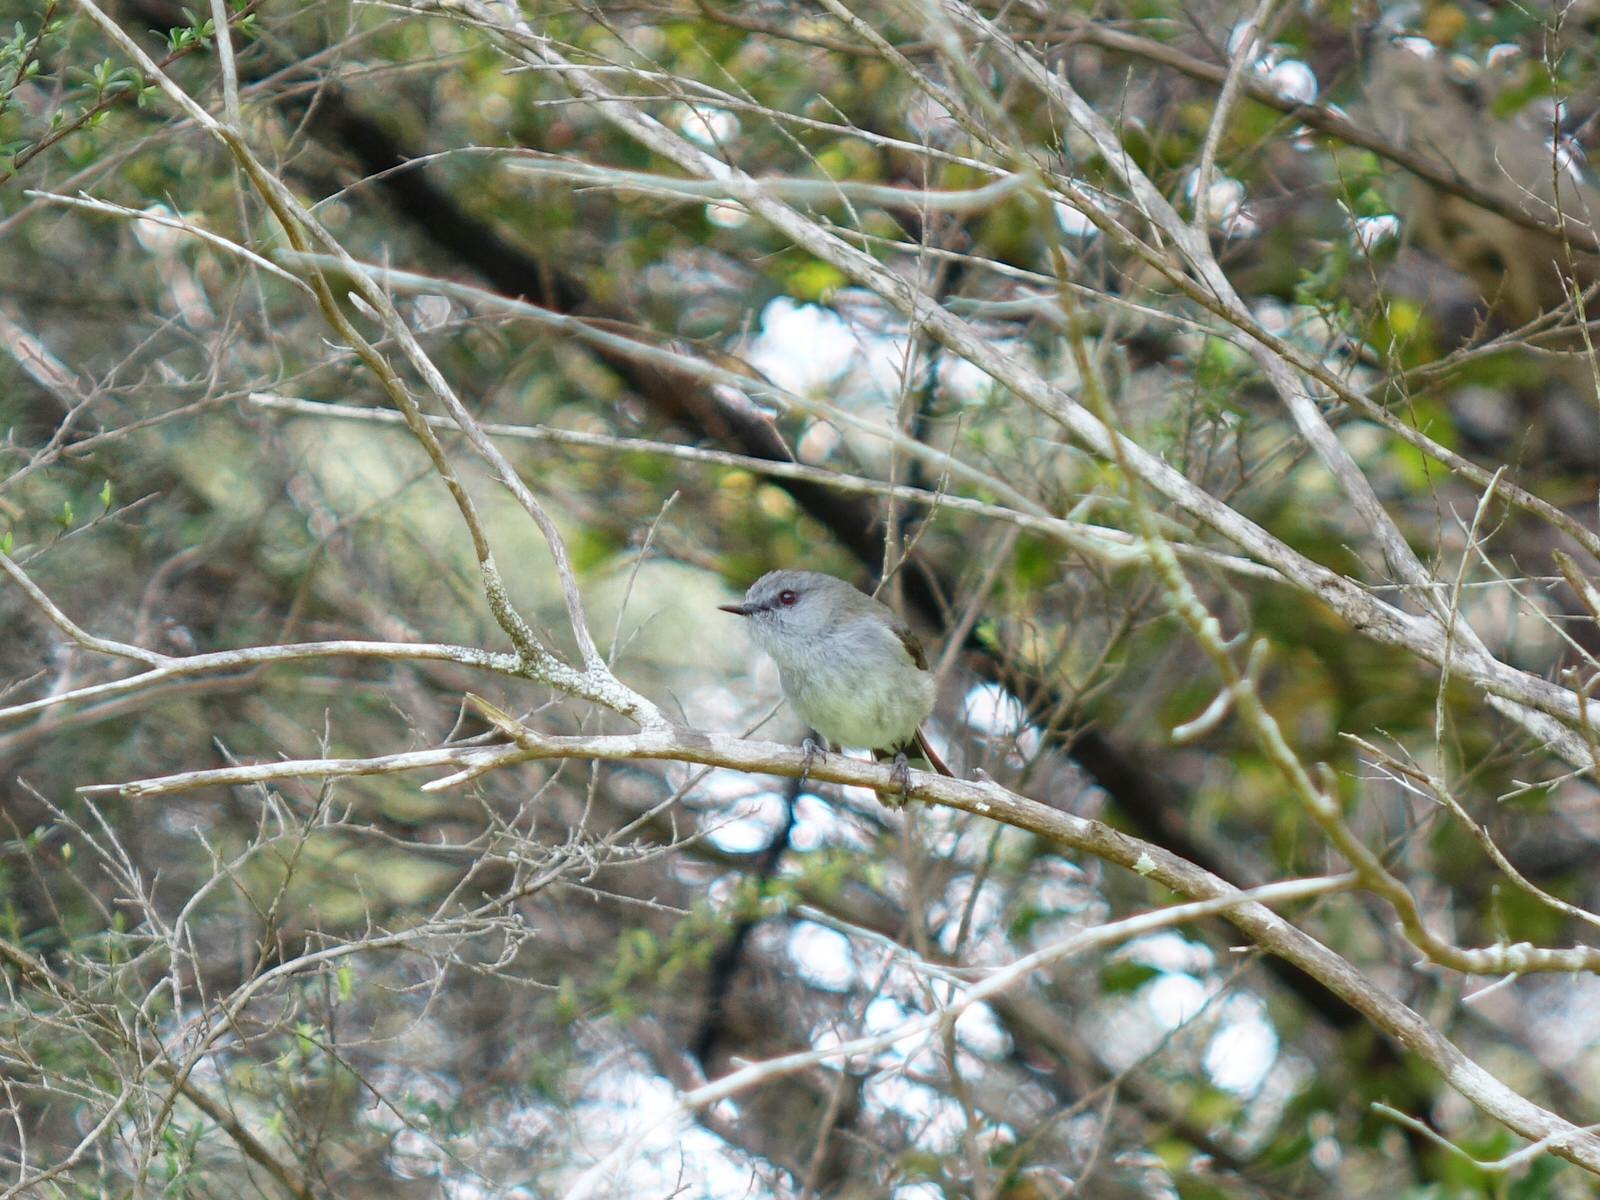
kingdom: Animalia
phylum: Chordata
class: Aves
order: Passeriformes
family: Acanthizidae
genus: Gerygone
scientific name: Gerygone igata
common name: Grey gerygone
